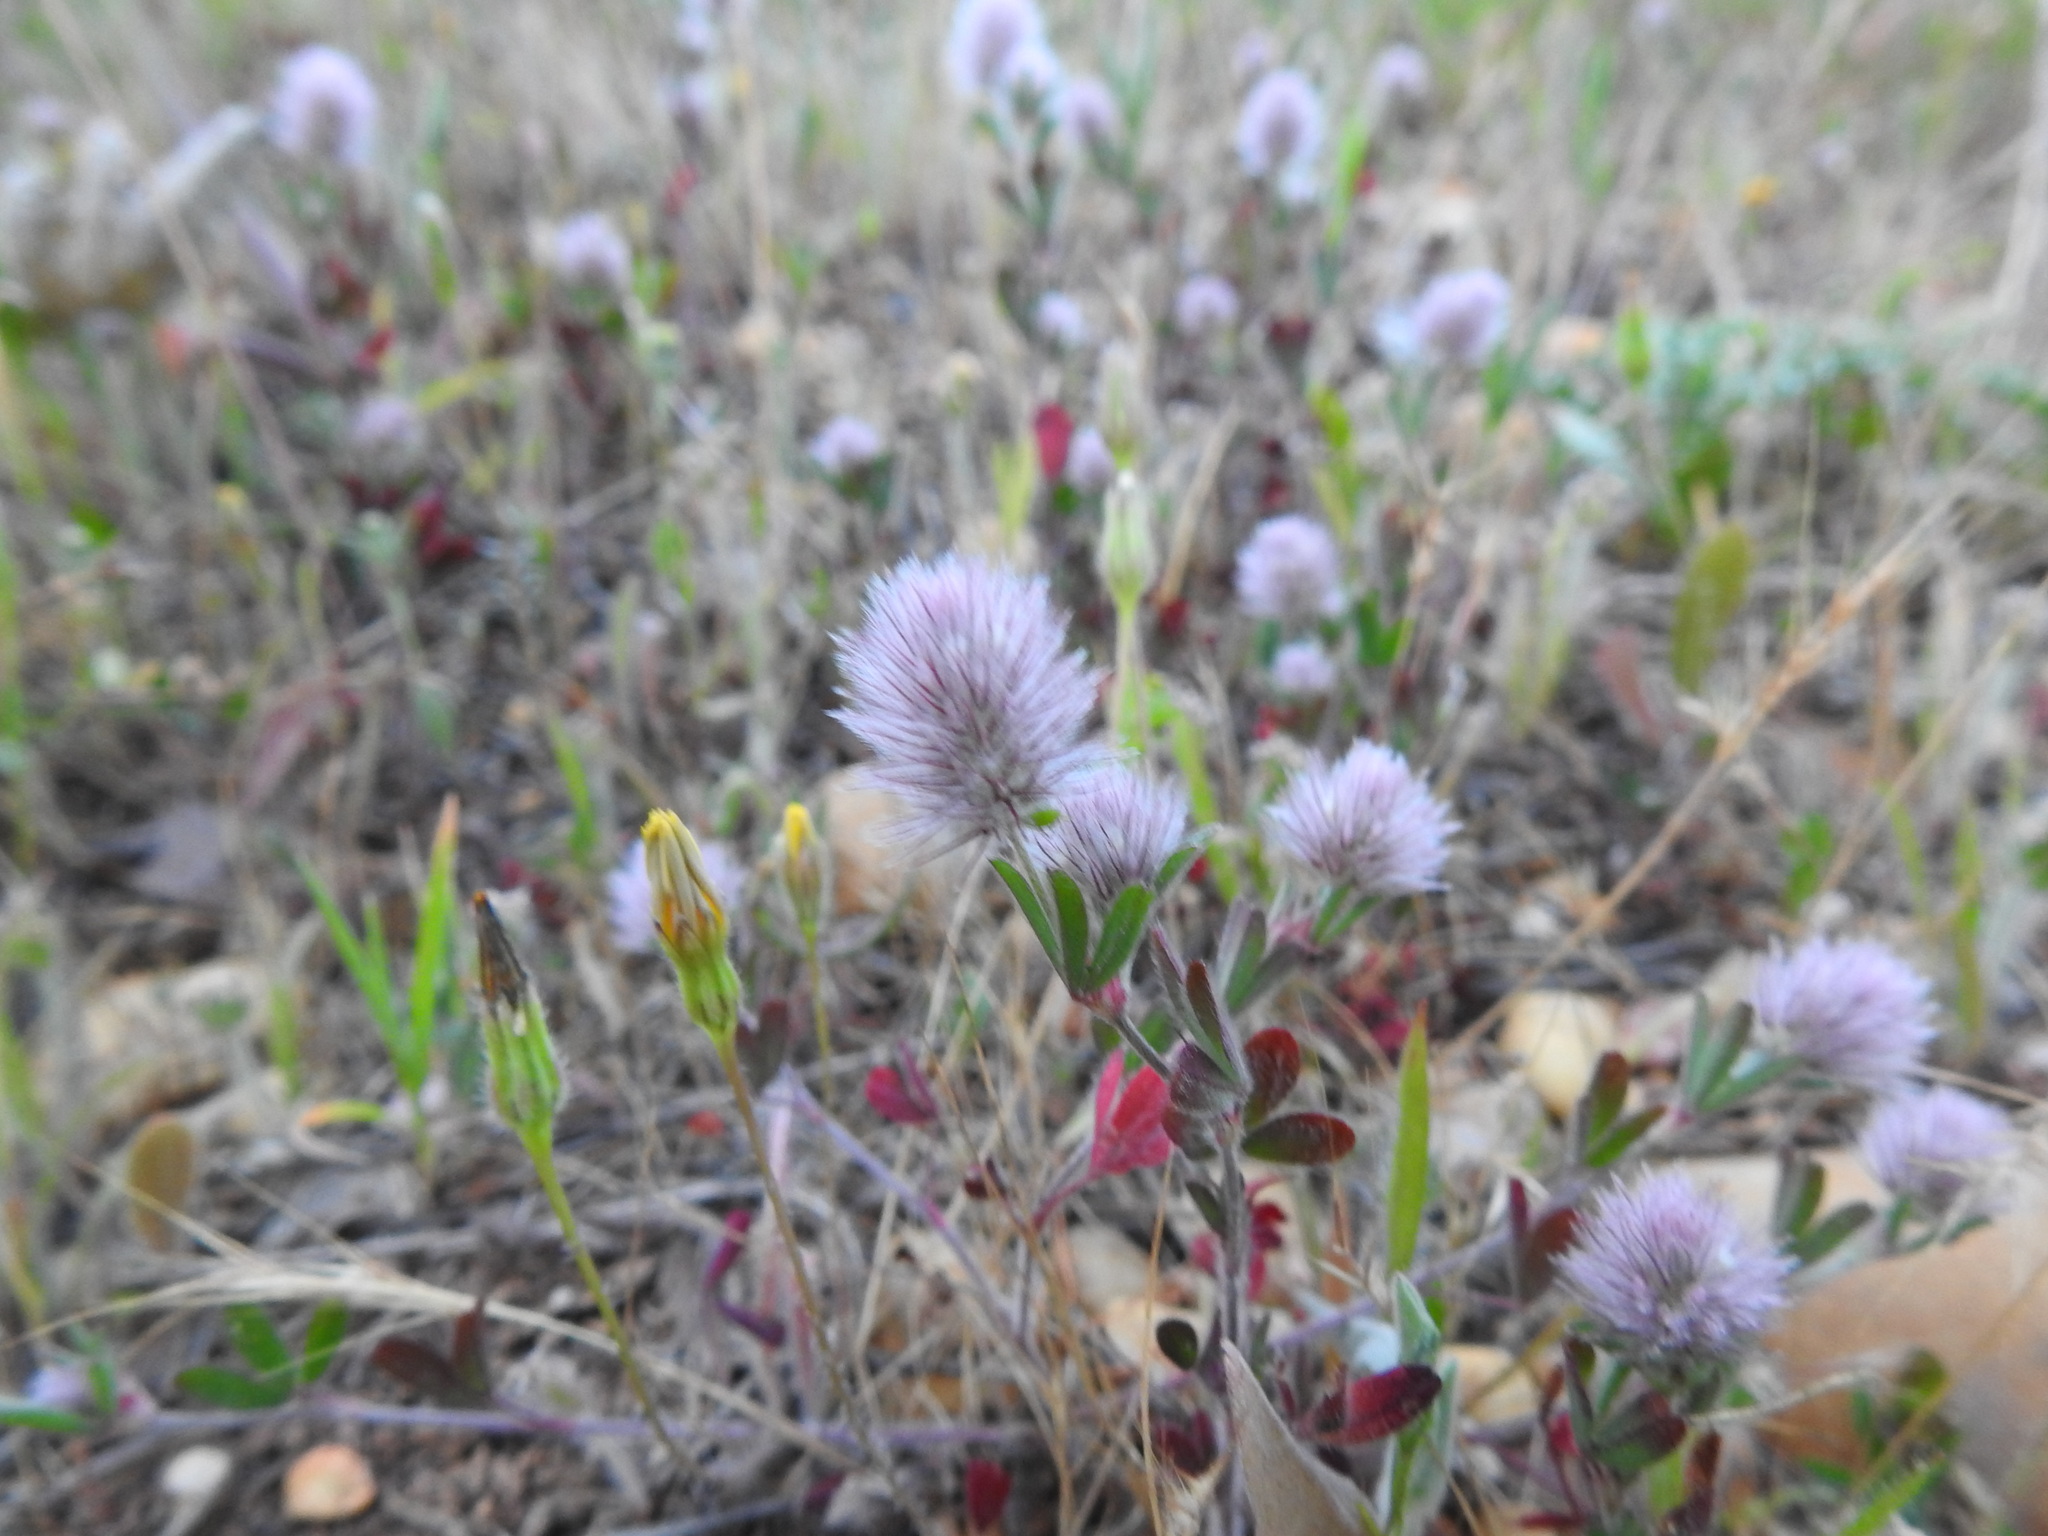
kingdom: Plantae
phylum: Tracheophyta
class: Magnoliopsida
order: Fabales
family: Fabaceae
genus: Trifolium
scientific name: Trifolium arvense
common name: Hare's-foot clover
